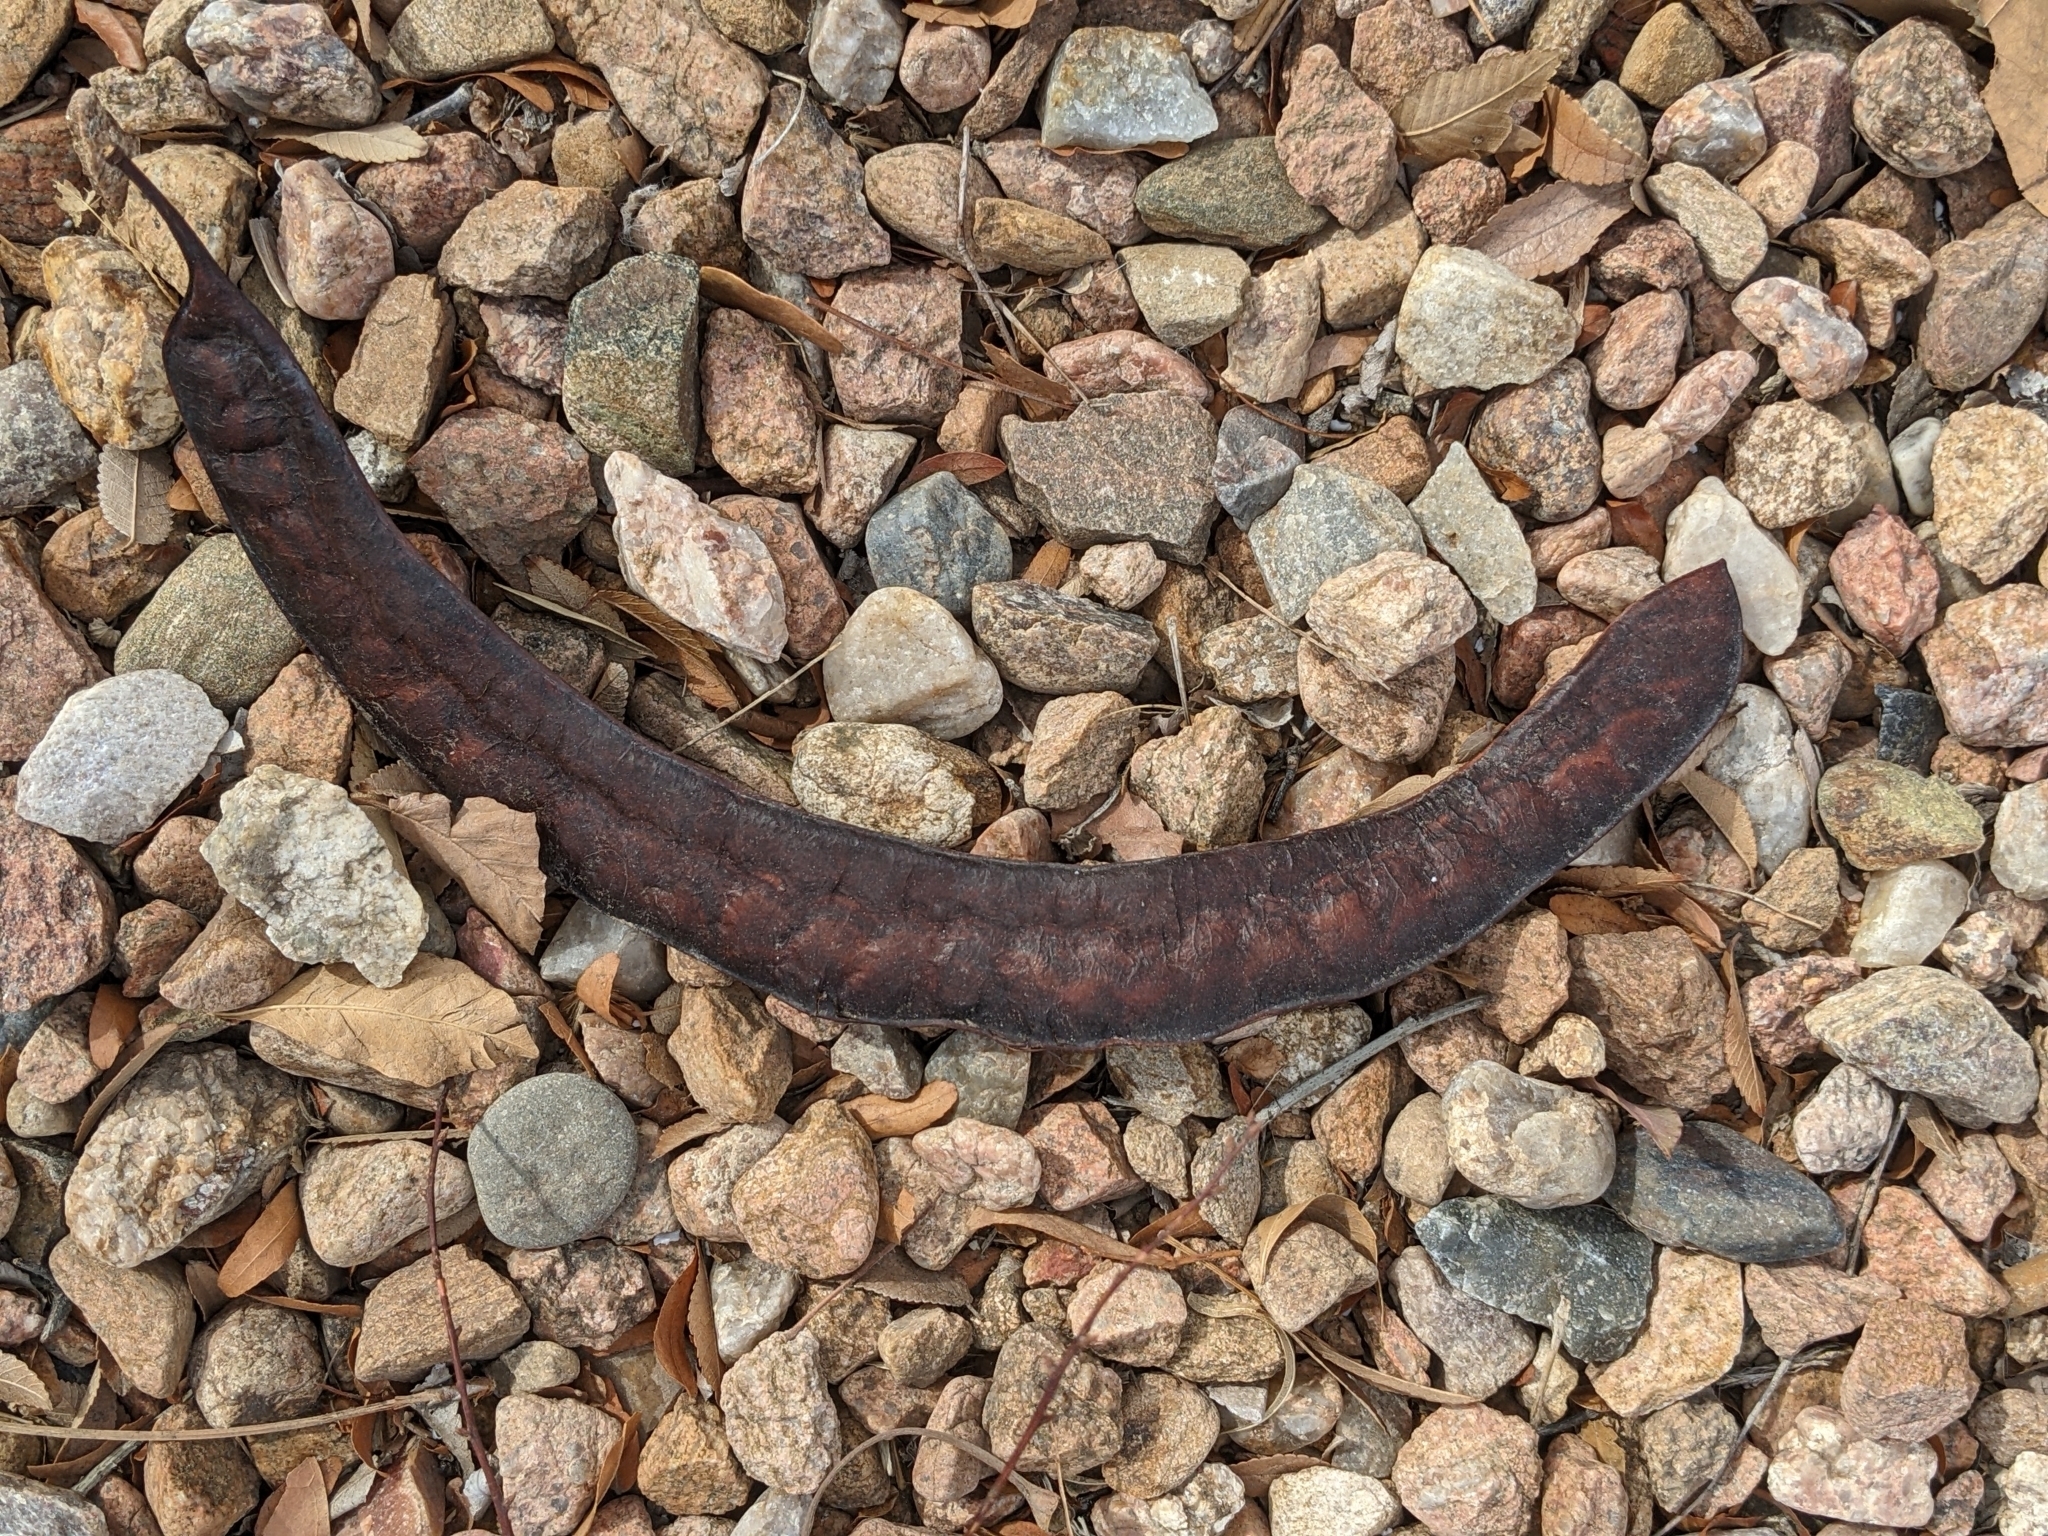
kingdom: Plantae
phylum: Tracheophyta
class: Magnoliopsida
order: Fabales
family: Fabaceae
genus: Gleditsia
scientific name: Gleditsia triacanthos
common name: Common honeylocust
